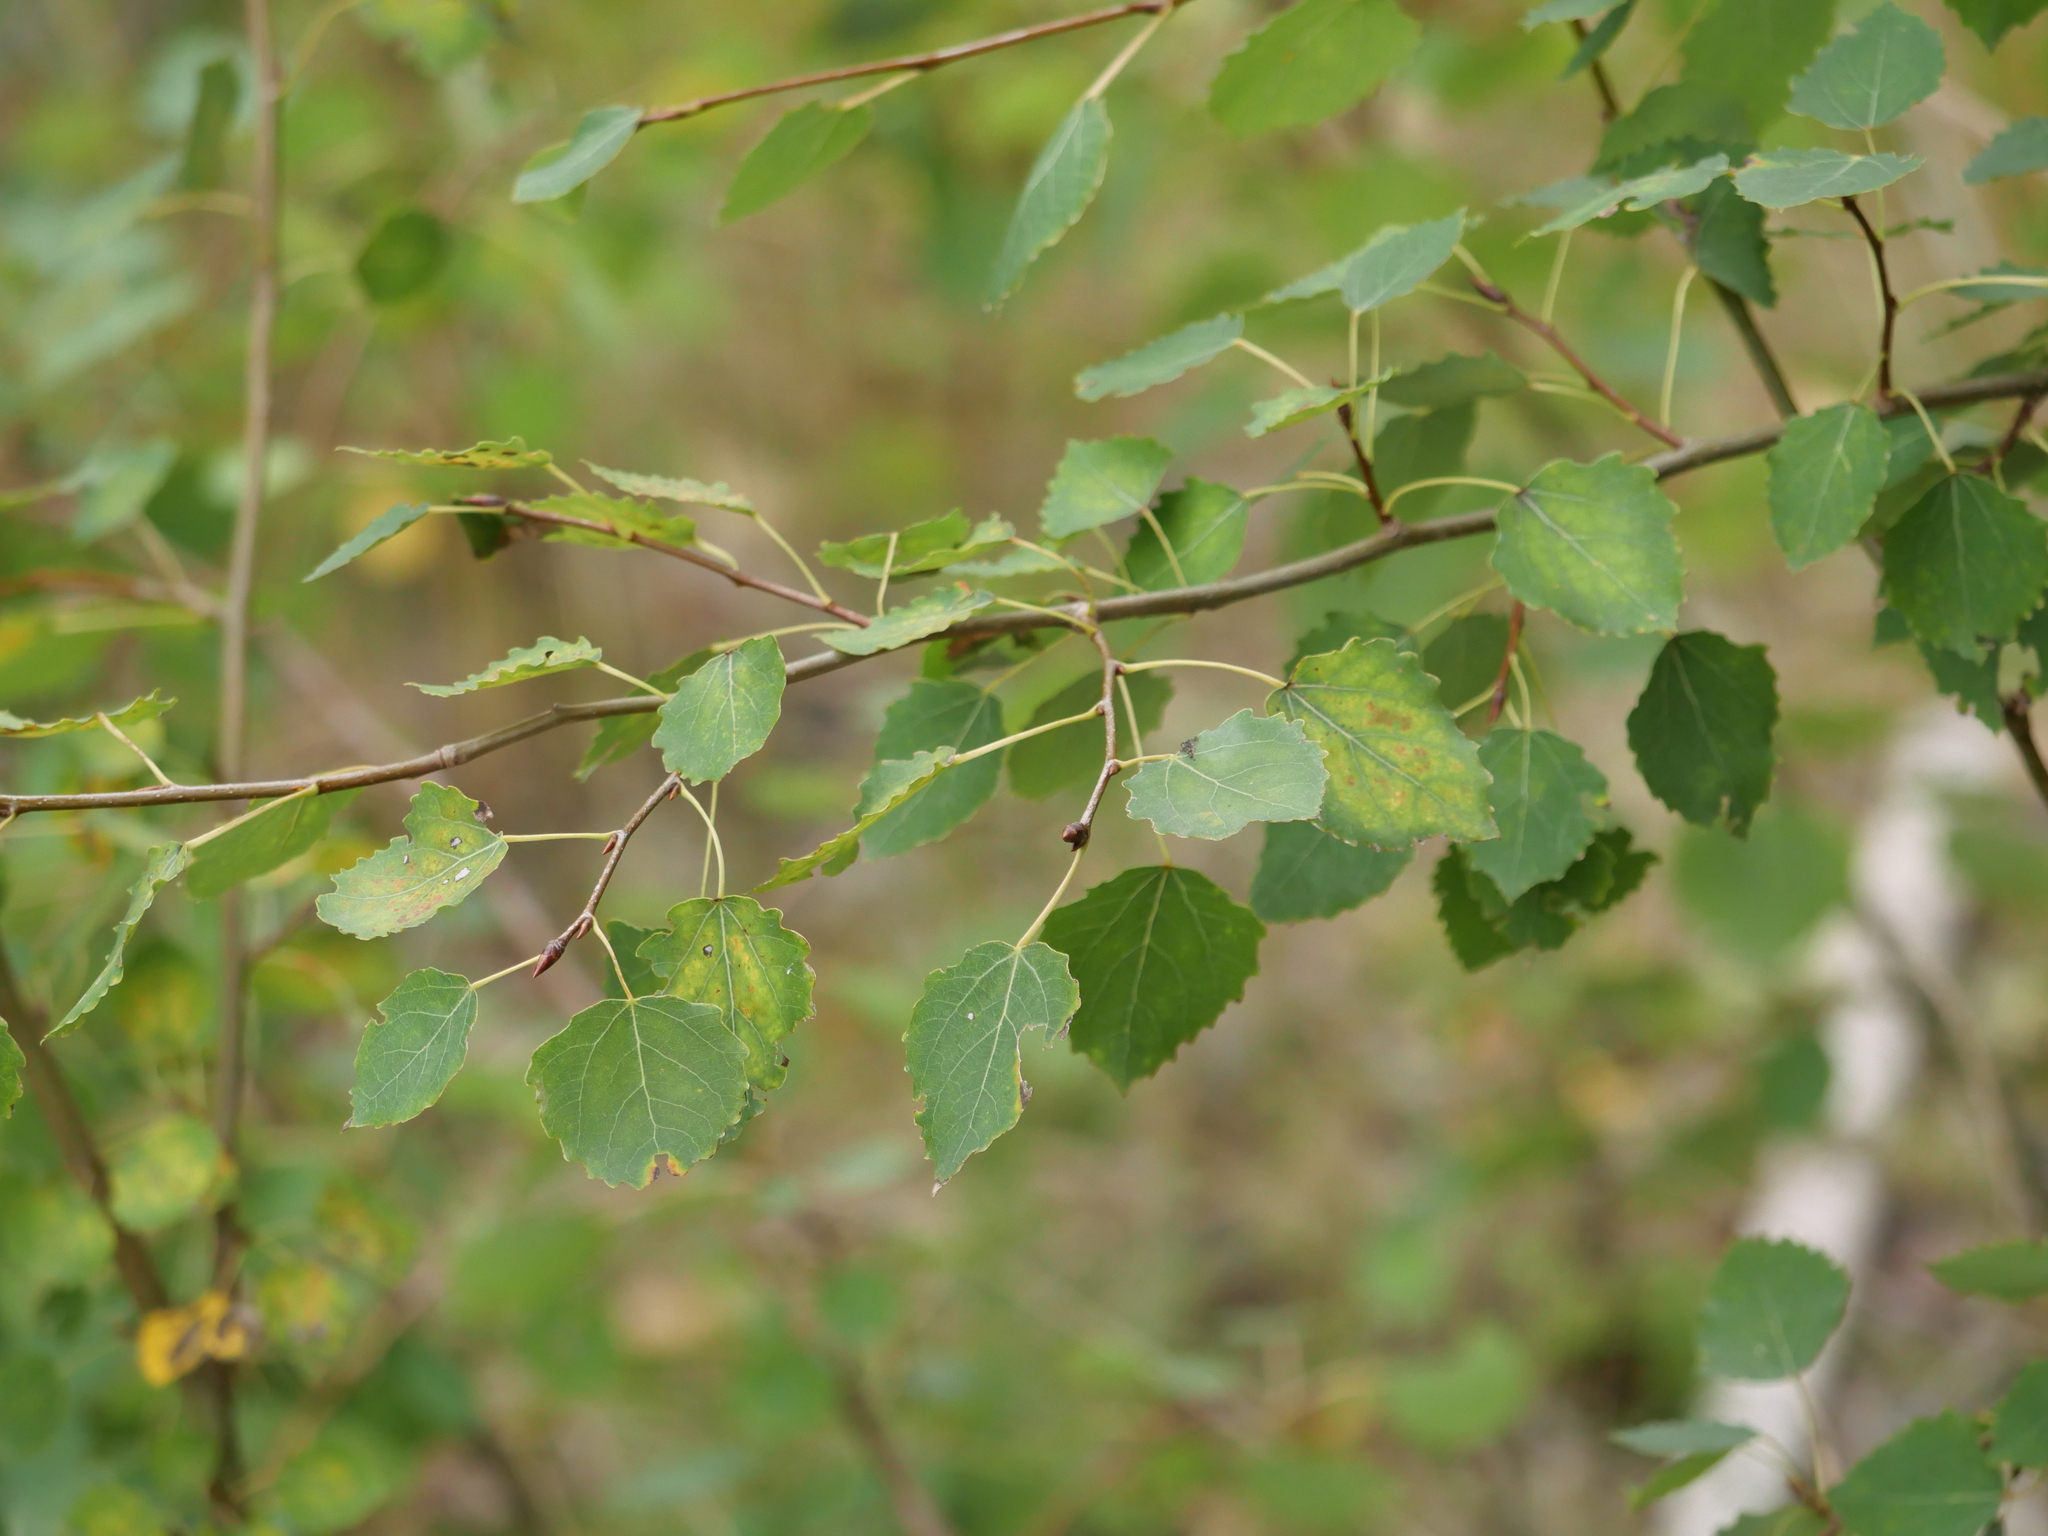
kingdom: Plantae
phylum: Tracheophyta
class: Magnoliopsida
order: Malpighiales
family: Salicaceae
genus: Populus
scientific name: Populus tremula
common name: European aspen
